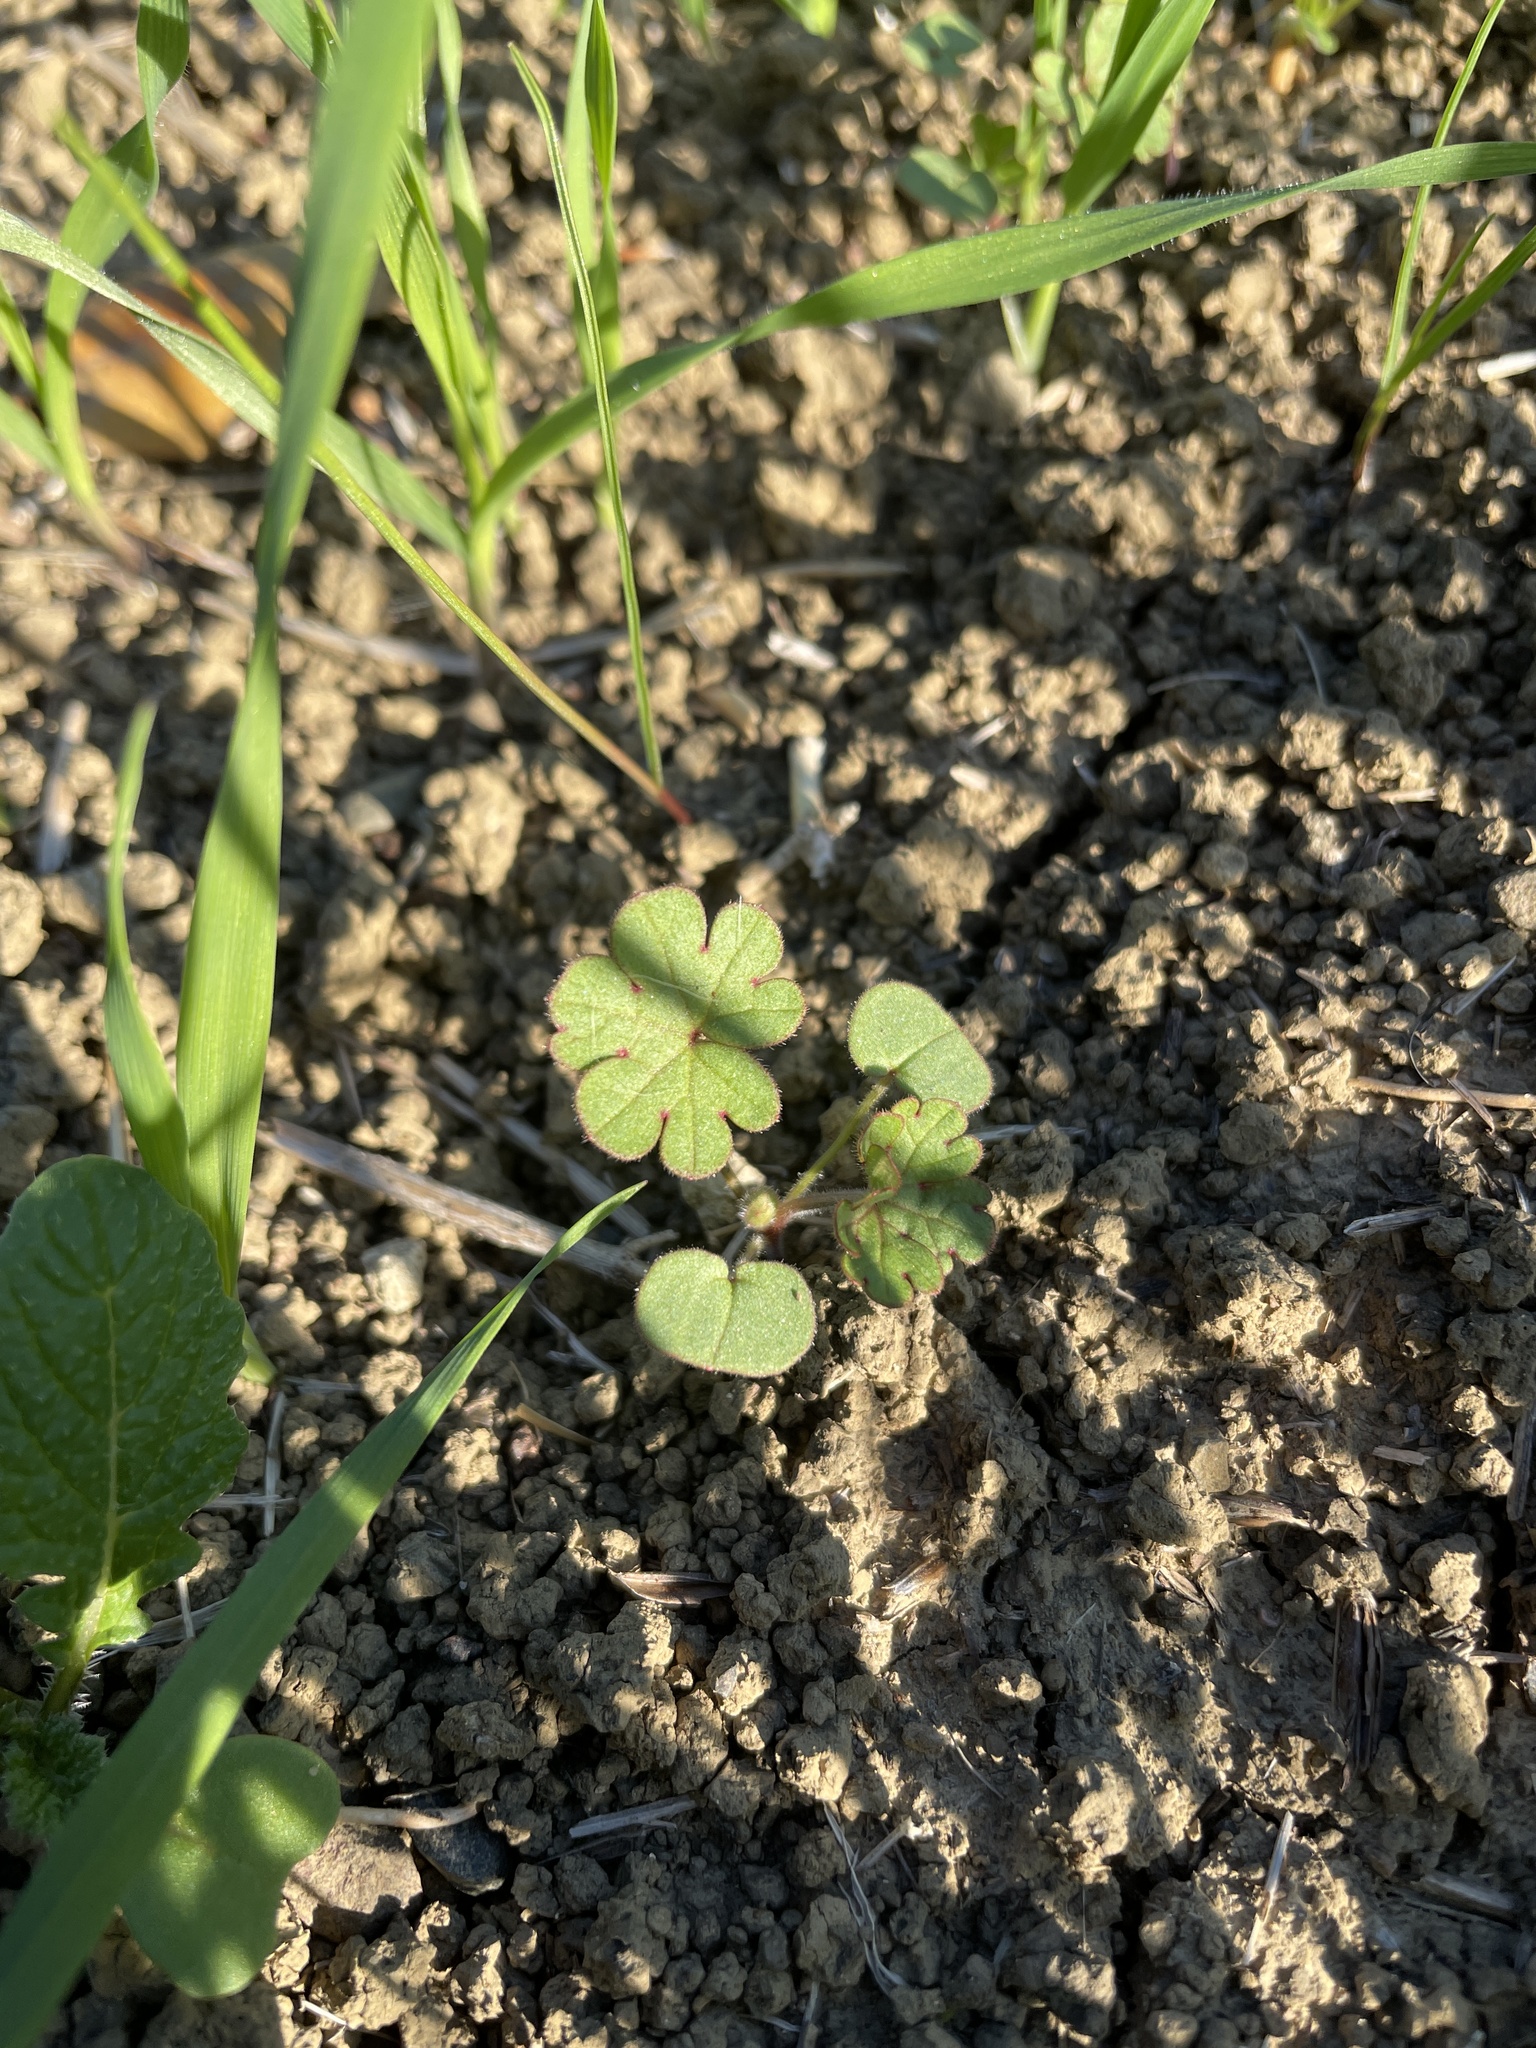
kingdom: Plantae
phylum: Tracheophyta
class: Magnoliopsida
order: Geraniales
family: Geraniaceae
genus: Geranium
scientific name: Geranium
